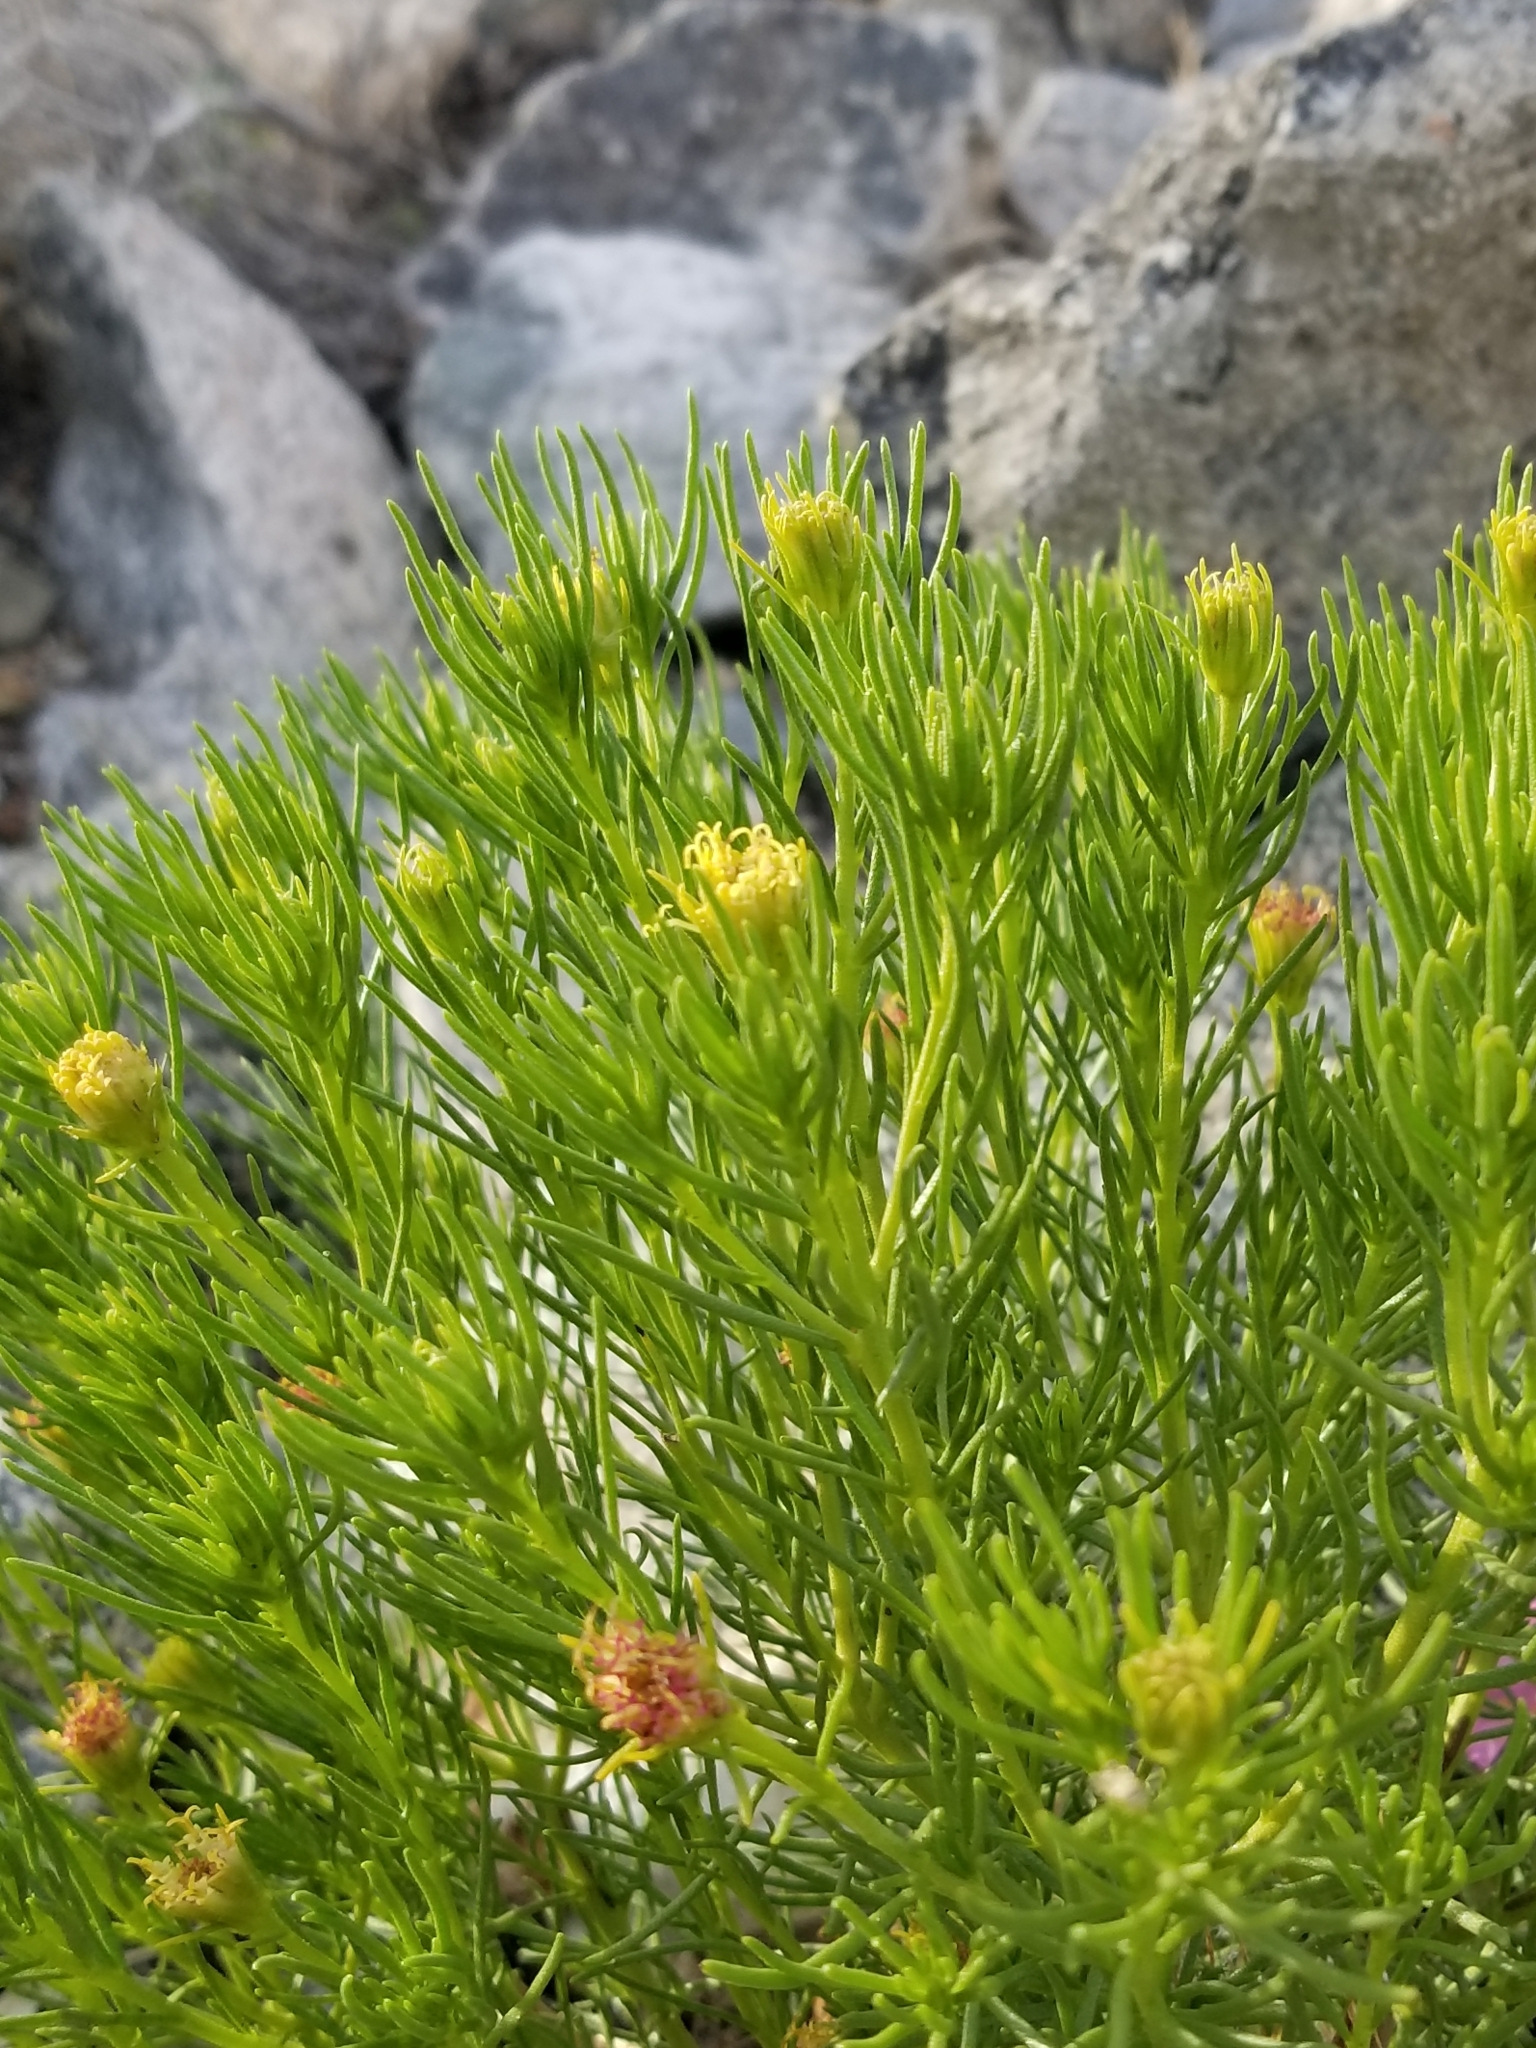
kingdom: Plantae
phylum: Tracheophyta
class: Magnoliopsida
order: Asterales
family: Asteraceae
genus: Peucephyllum
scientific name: Peucephyllum schottii
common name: Pygmy-cedar
